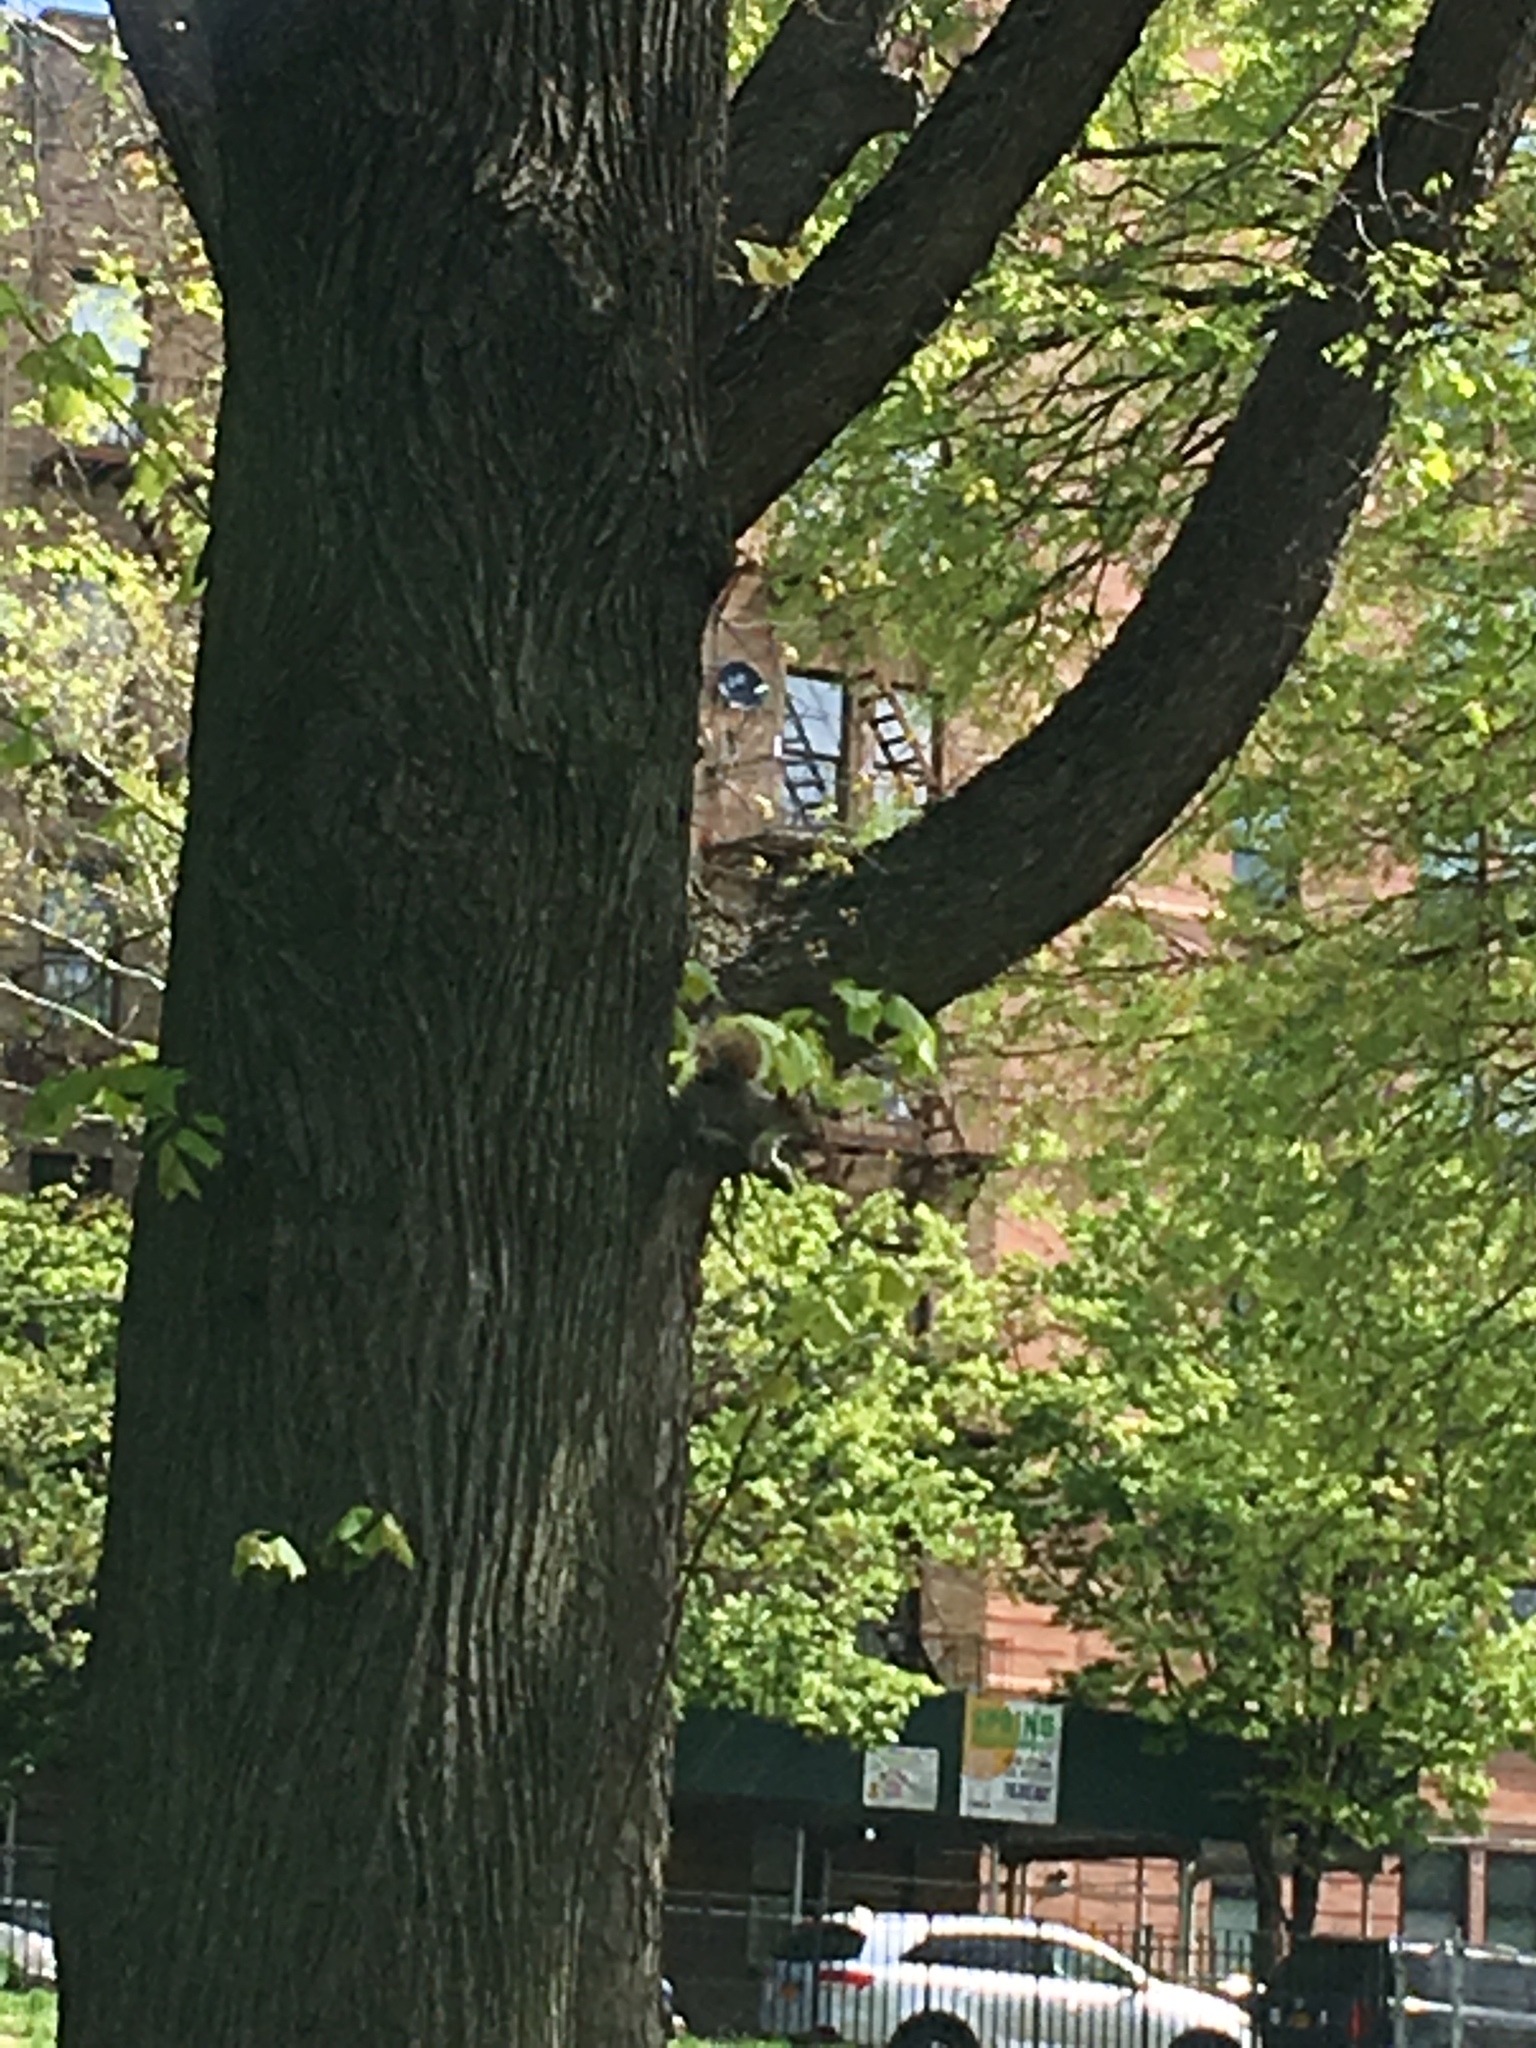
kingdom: Animalia
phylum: Chordata
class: Mammalia
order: Rodentia
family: Sciuridae
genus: Sciurus
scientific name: Sciurus carolinensis
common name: Eastern gray squirrel
